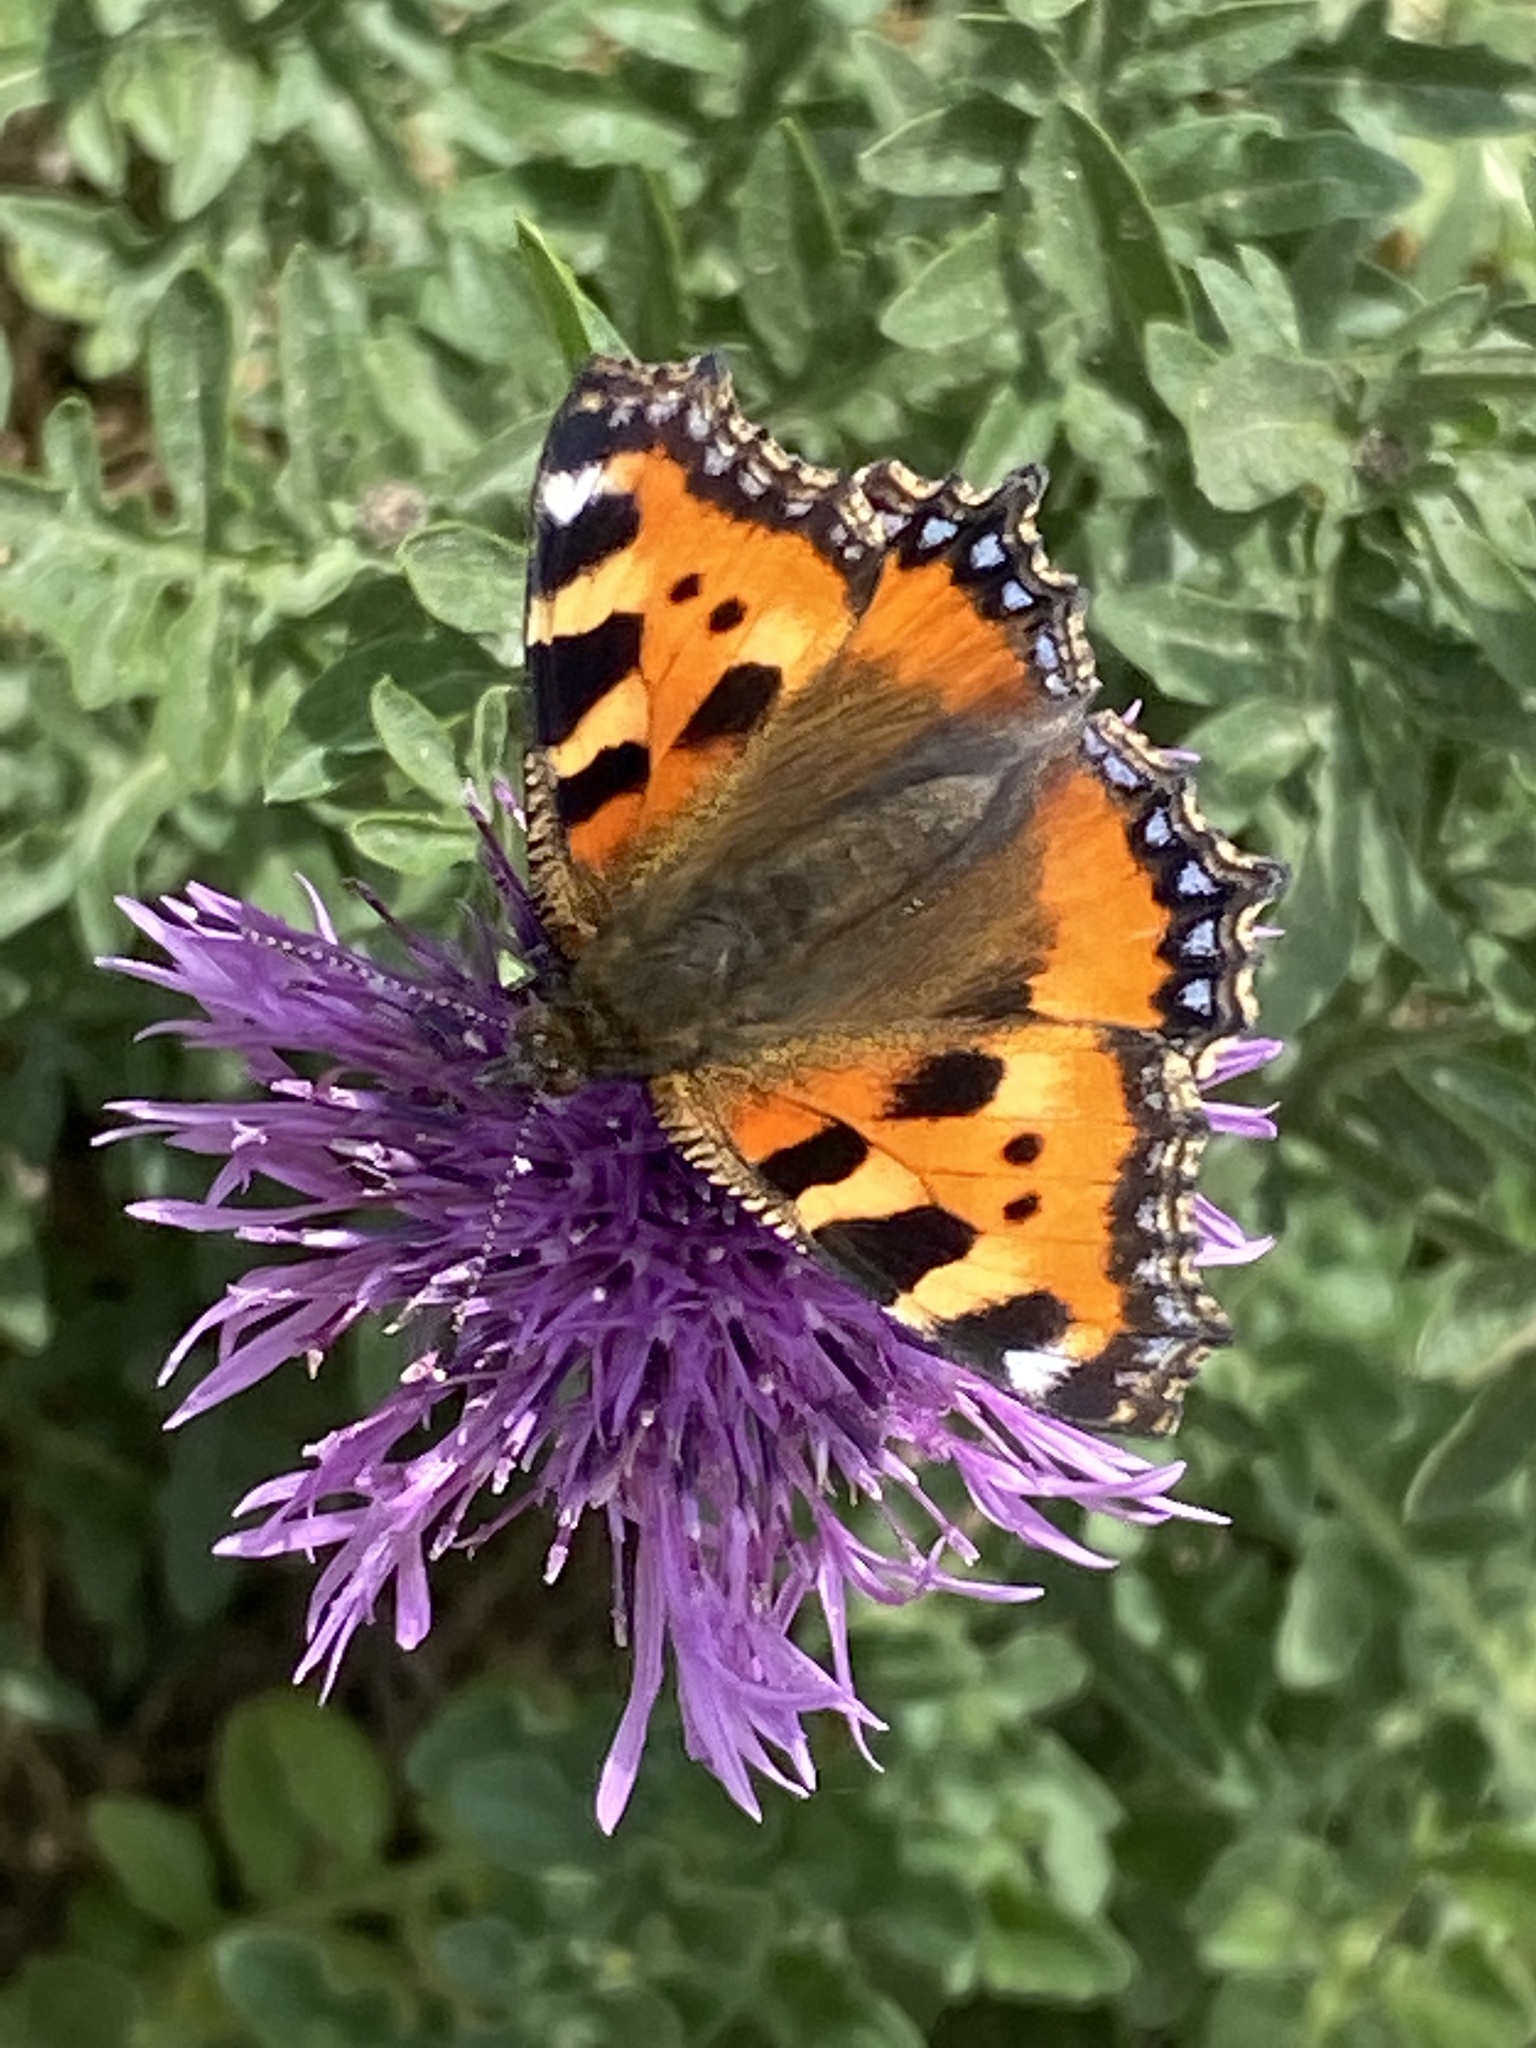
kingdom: Animalia
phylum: Arthropoda
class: Insecta
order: Lepidoptera
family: Nymphalidae
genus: Aglais
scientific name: Aglais urticae
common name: Small tortoiseshell
